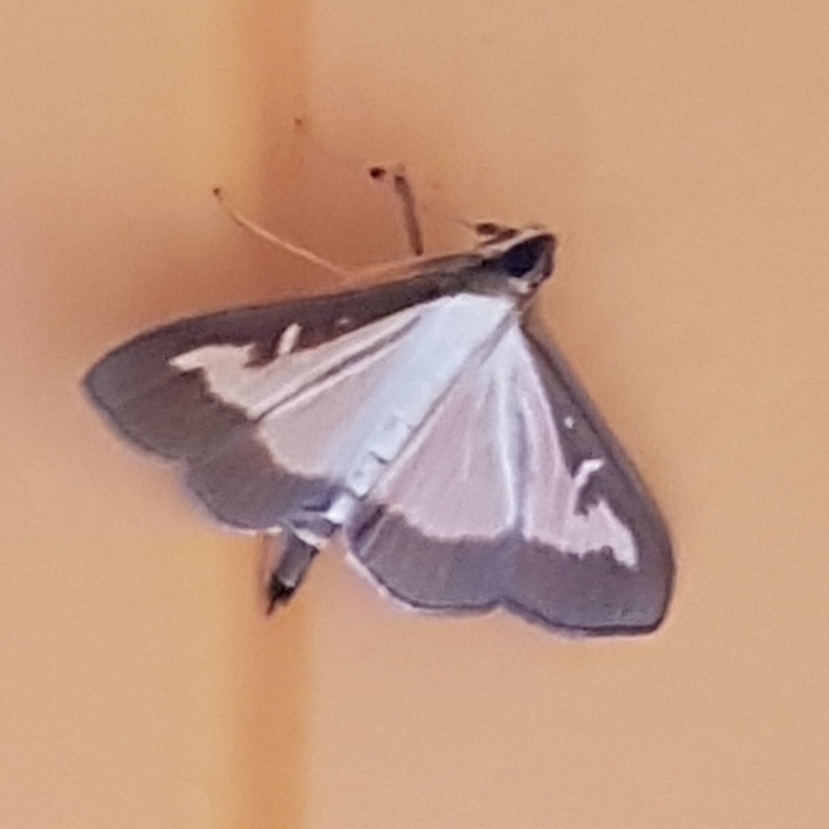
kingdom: Animalia
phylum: Arthropoda
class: Insecta
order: Lepidoptera
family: Crambidae
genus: Cydalima
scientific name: Cydalima perspectalis
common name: Box tree moth
